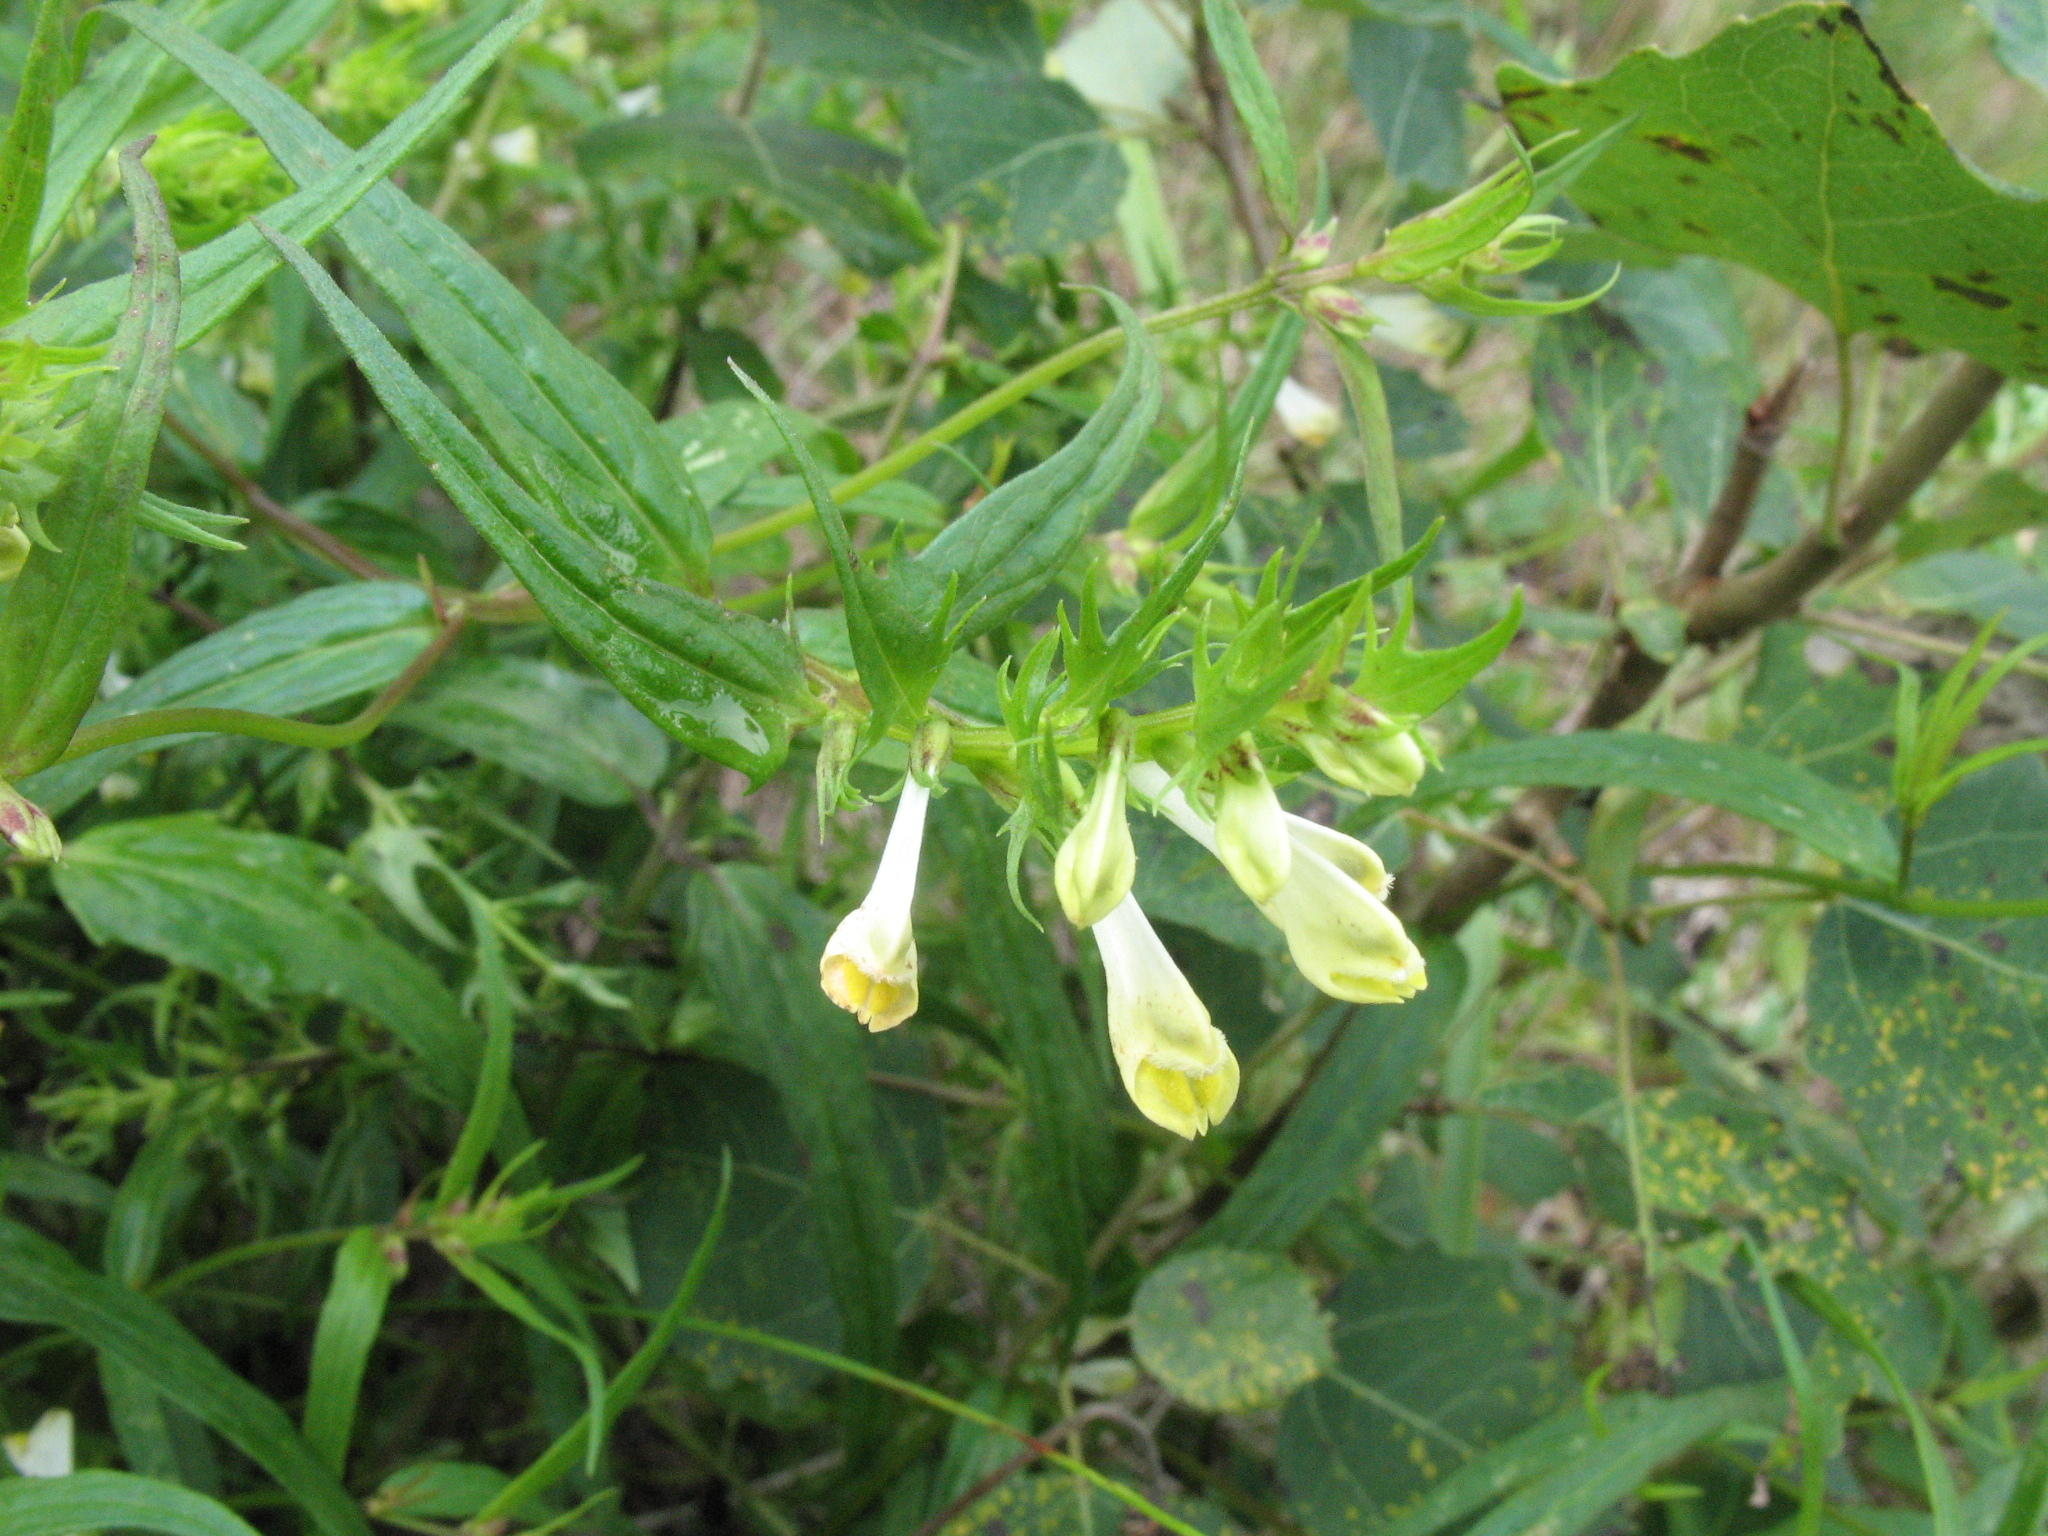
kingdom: Plantae
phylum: Tracheophyta
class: Magnoliopsida
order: Lamiales
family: Orobanchaceae
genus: Melampyrum
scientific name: Melampyrum pratense
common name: Common cow-wheat
